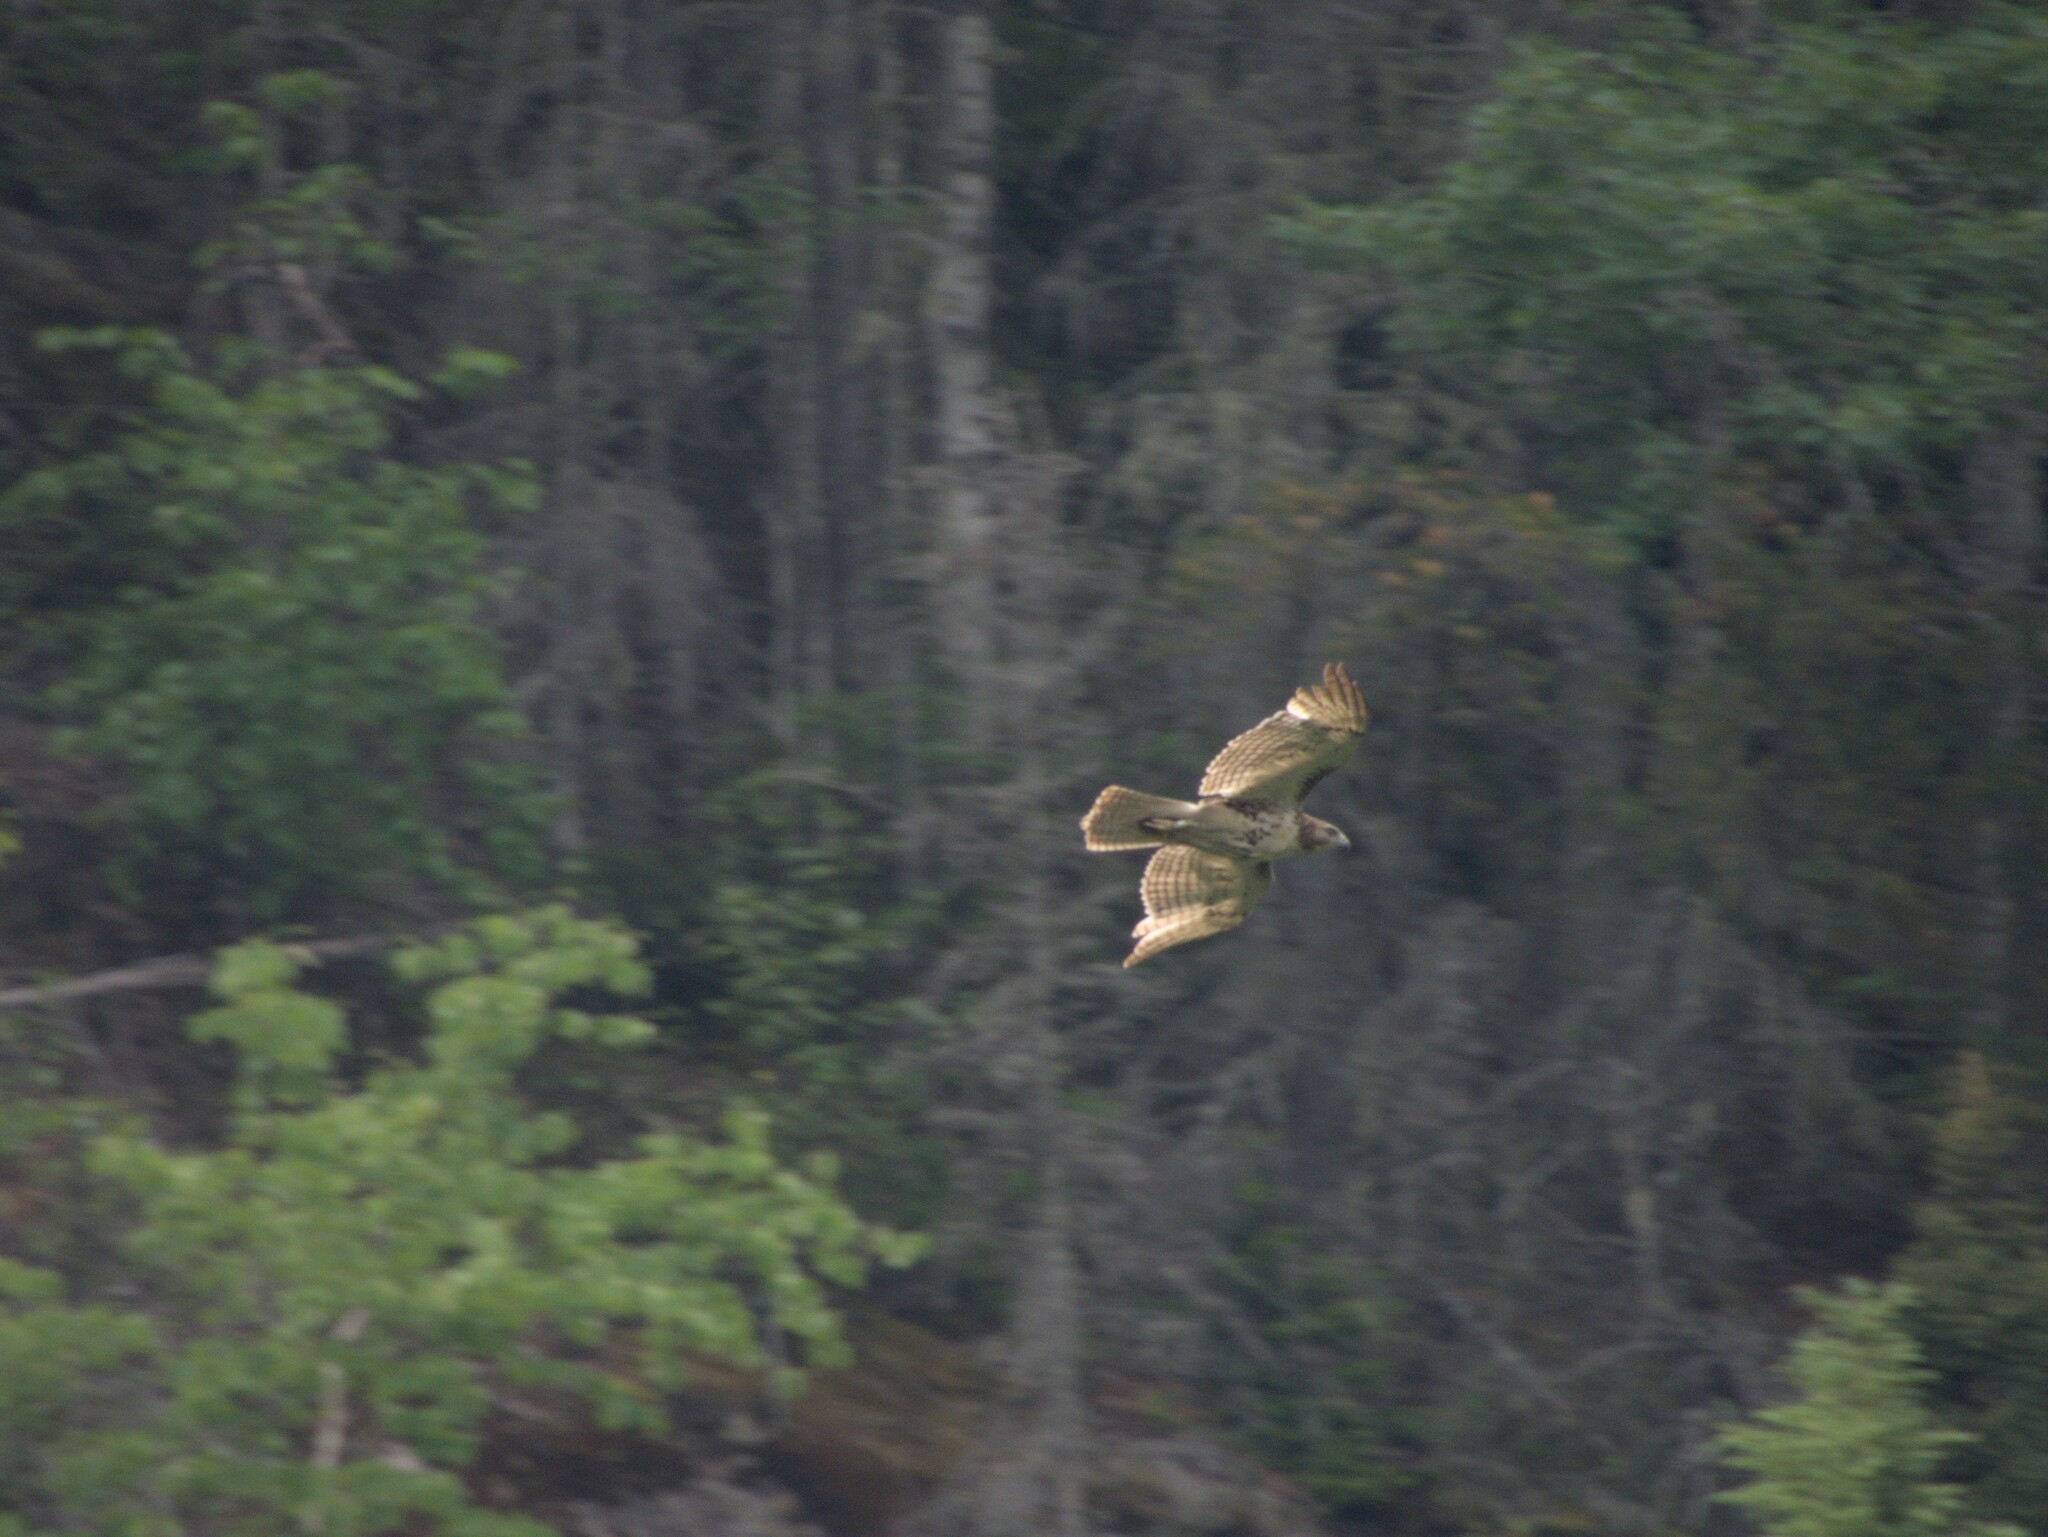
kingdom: Animalia
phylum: Chordata
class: Aves
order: Accipitriformes
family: Accipitridae
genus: Buteo
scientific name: Buteo jamaicensis
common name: Red-tailed hawk
